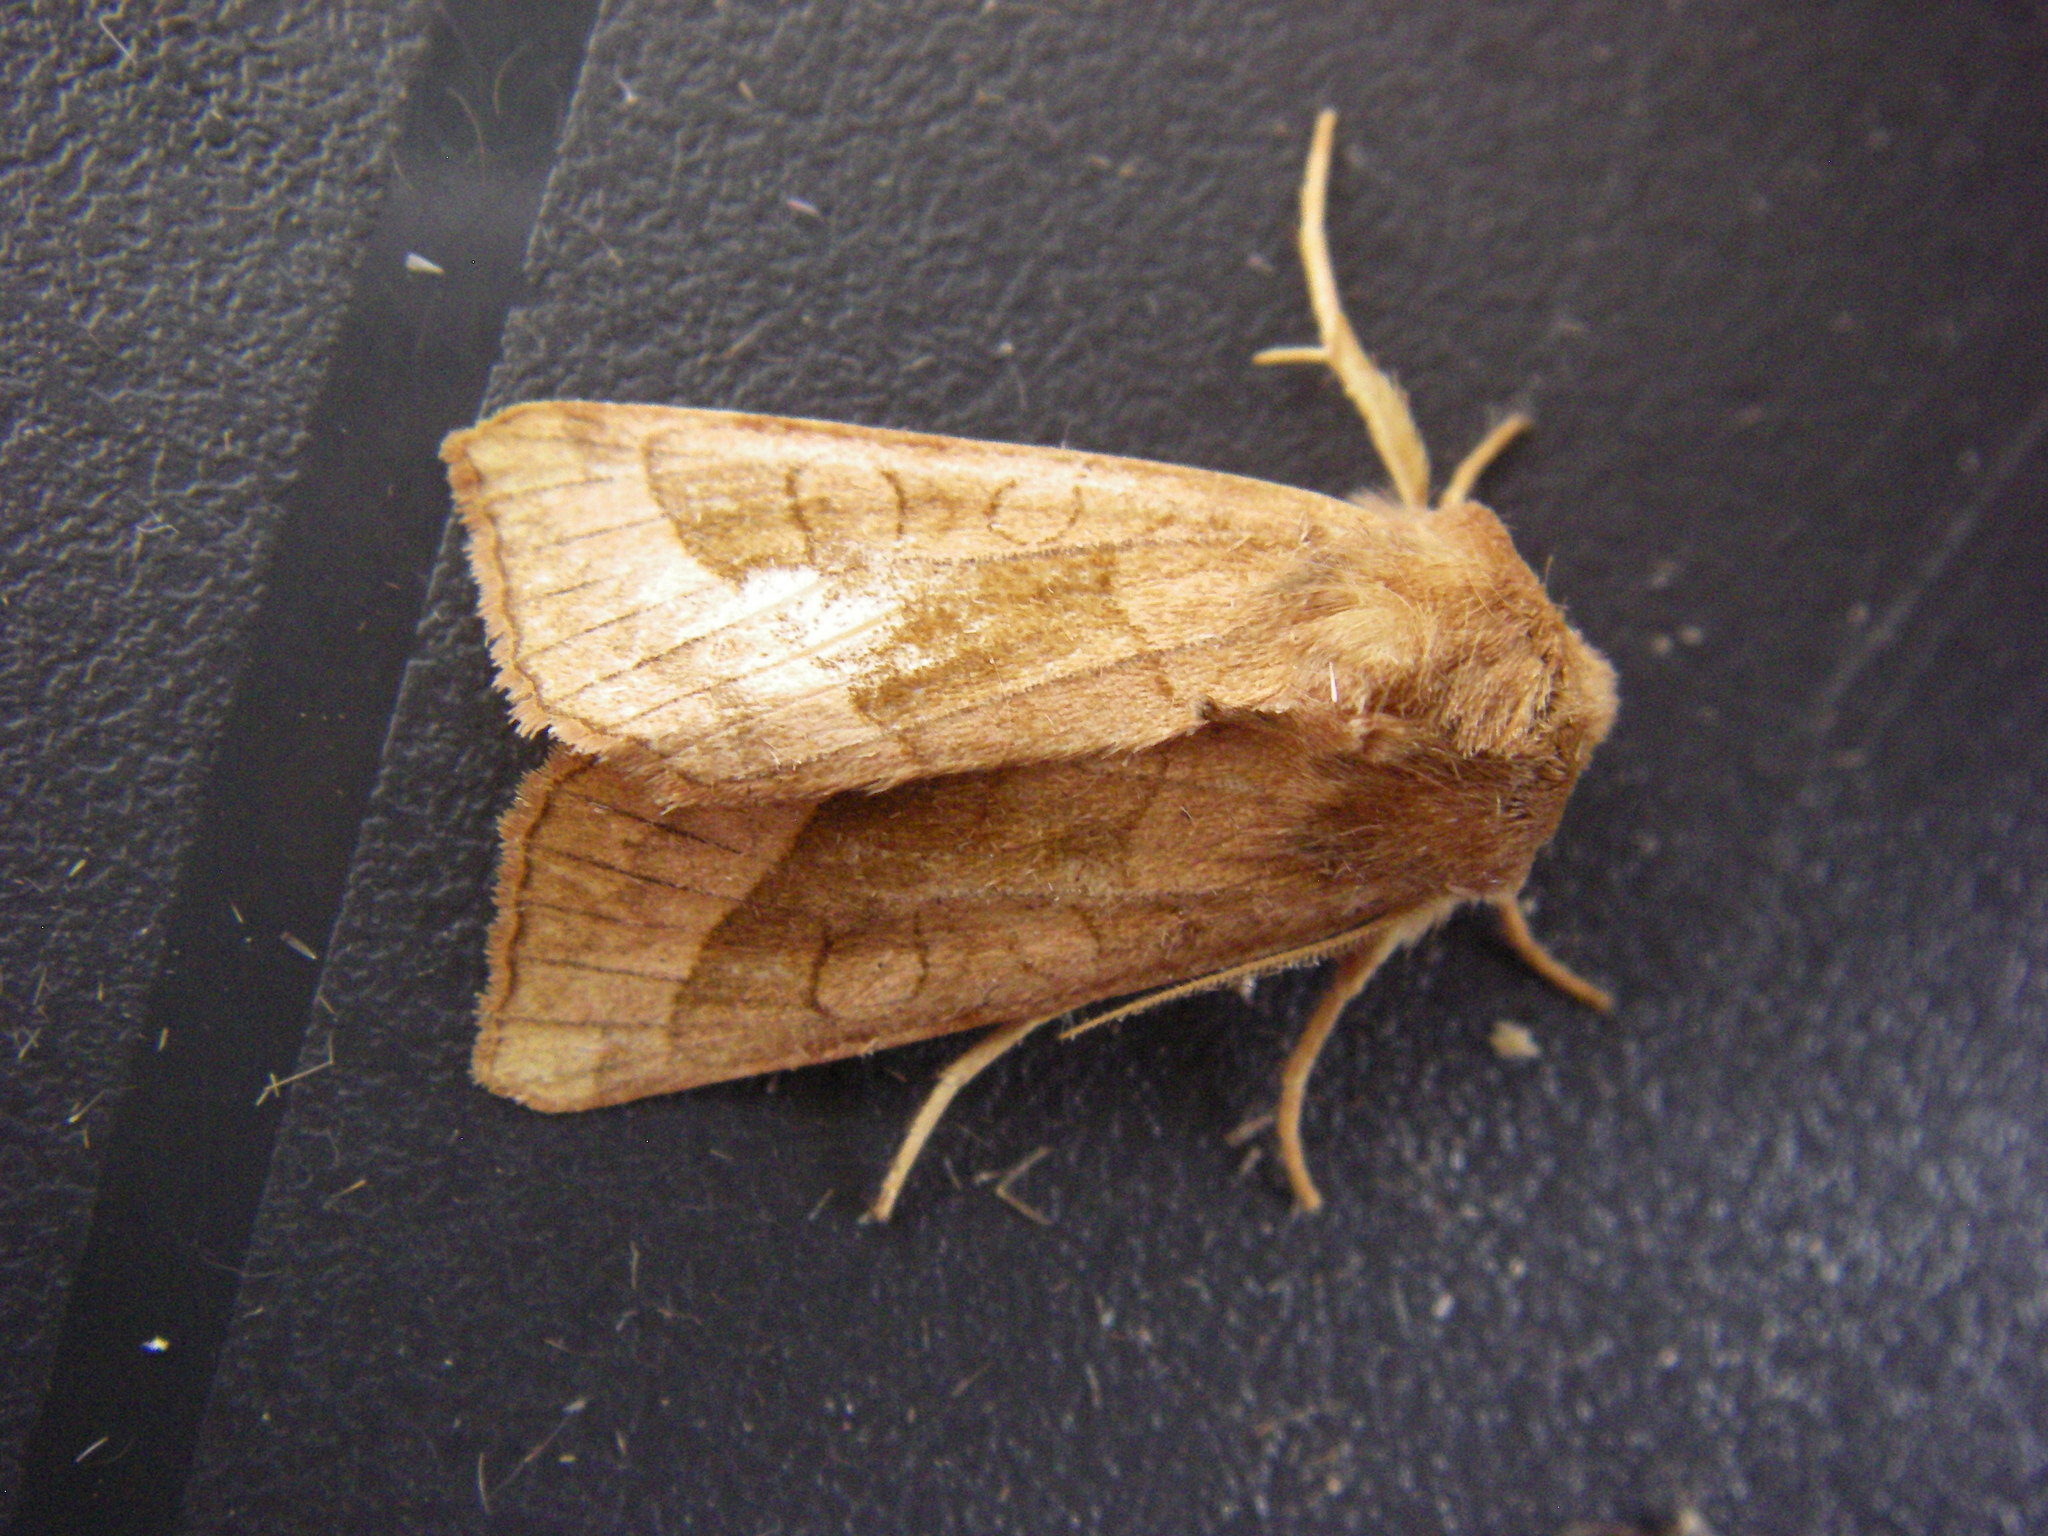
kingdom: Animalia
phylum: Arthropoda
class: Insecta
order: Lepidoptera
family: Noctuidae
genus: Hydraecia
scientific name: Hydraecia micacea
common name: Rosy rustic
